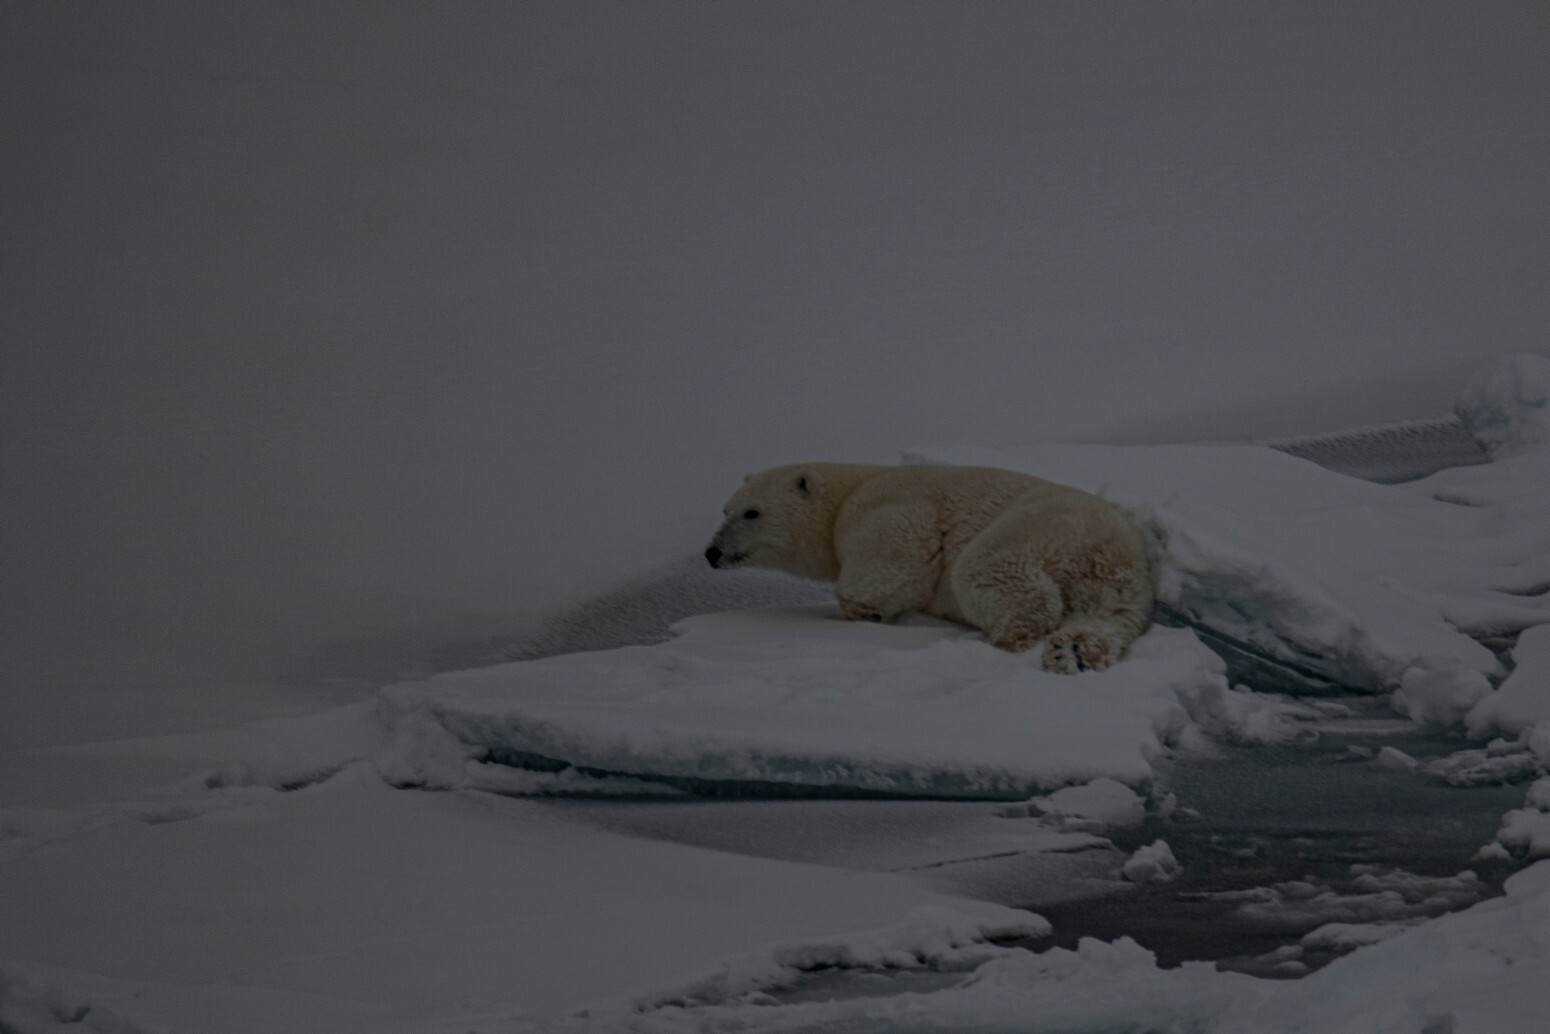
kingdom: Animalia
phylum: Chordata
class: Mammalia
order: Carnivora
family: Ursidae
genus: Ursus
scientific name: Ursus maritimus
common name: Polar bear
